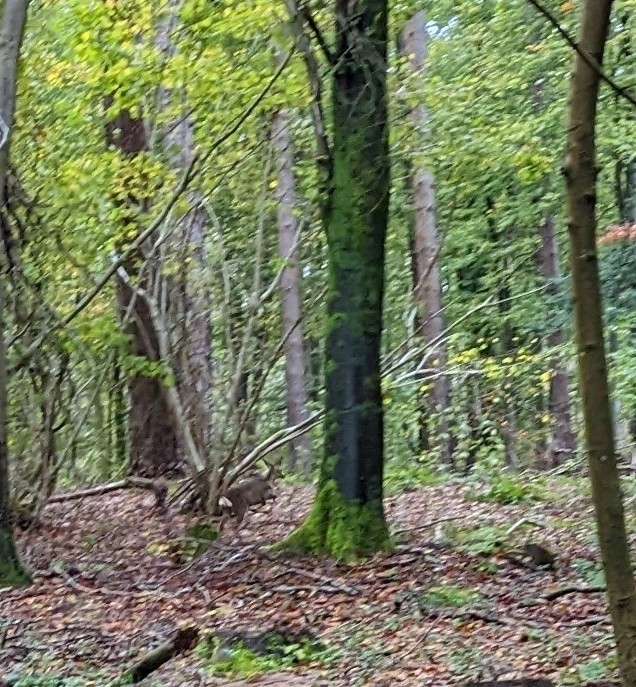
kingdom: Animalia
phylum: Chordata
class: Mammalia
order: Artiodactyla
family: Cervidae
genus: Capreolus
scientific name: Capreolus capreolus
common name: Western roe deer
